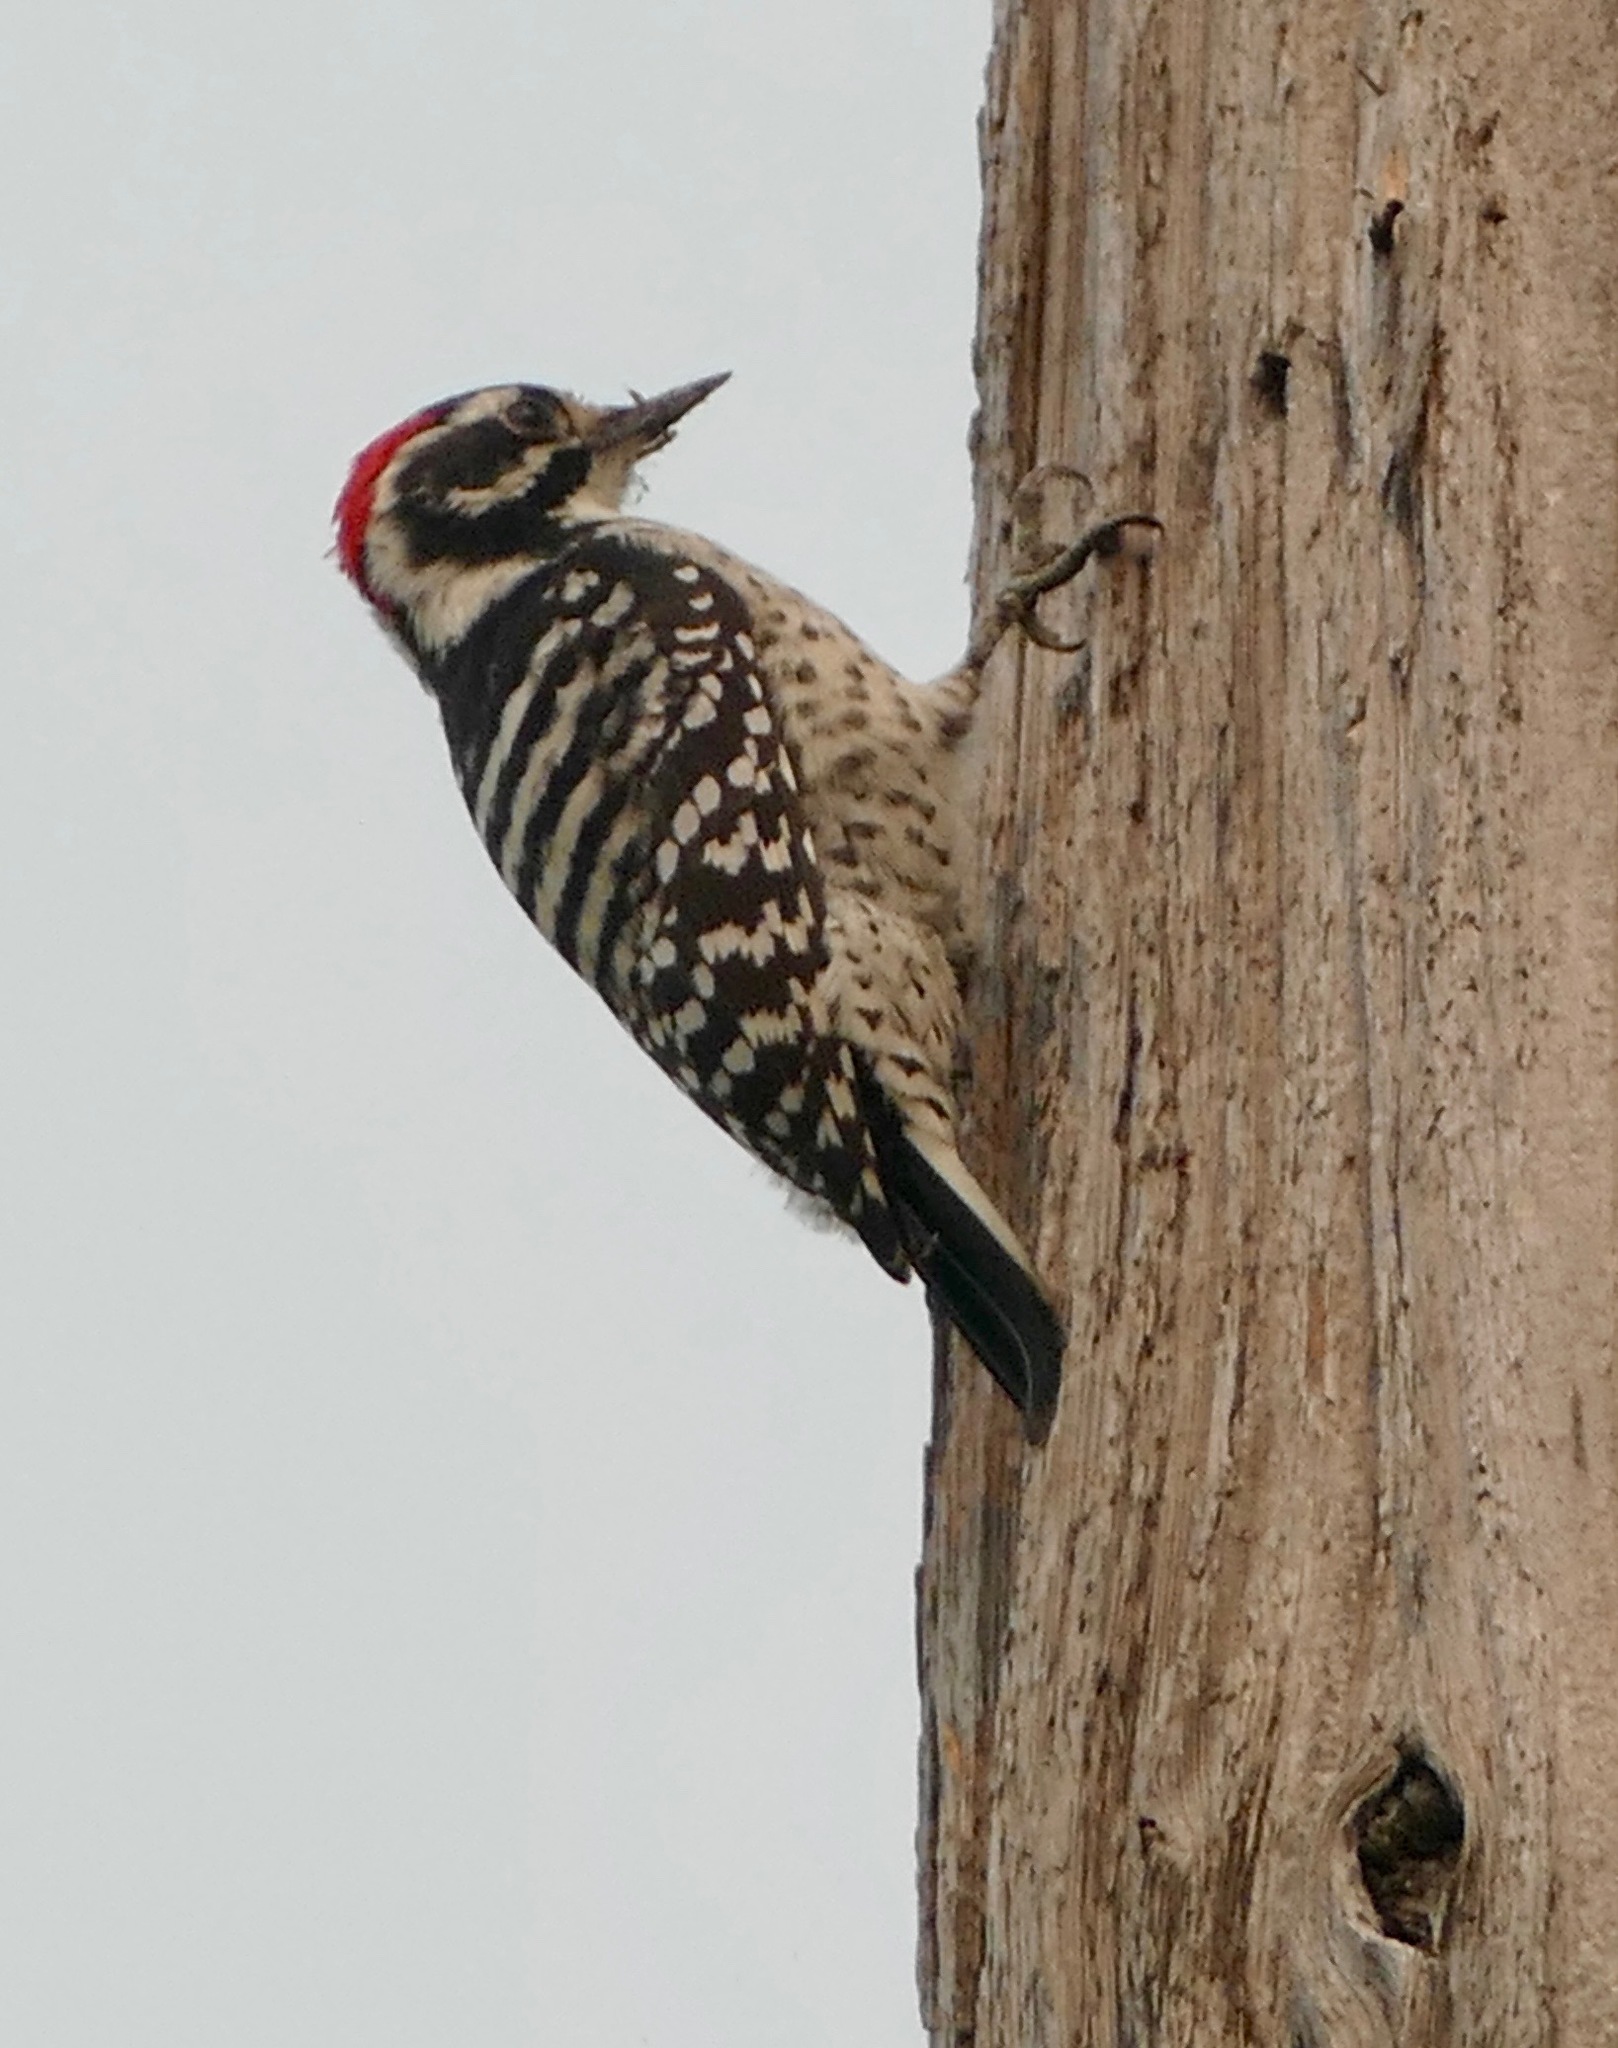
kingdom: Animalia
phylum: Chordata
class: Aves
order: Piciformes
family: Picidae
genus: Dryobates
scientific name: Dryobates nuttallii
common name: Nuttall's woodpecker
